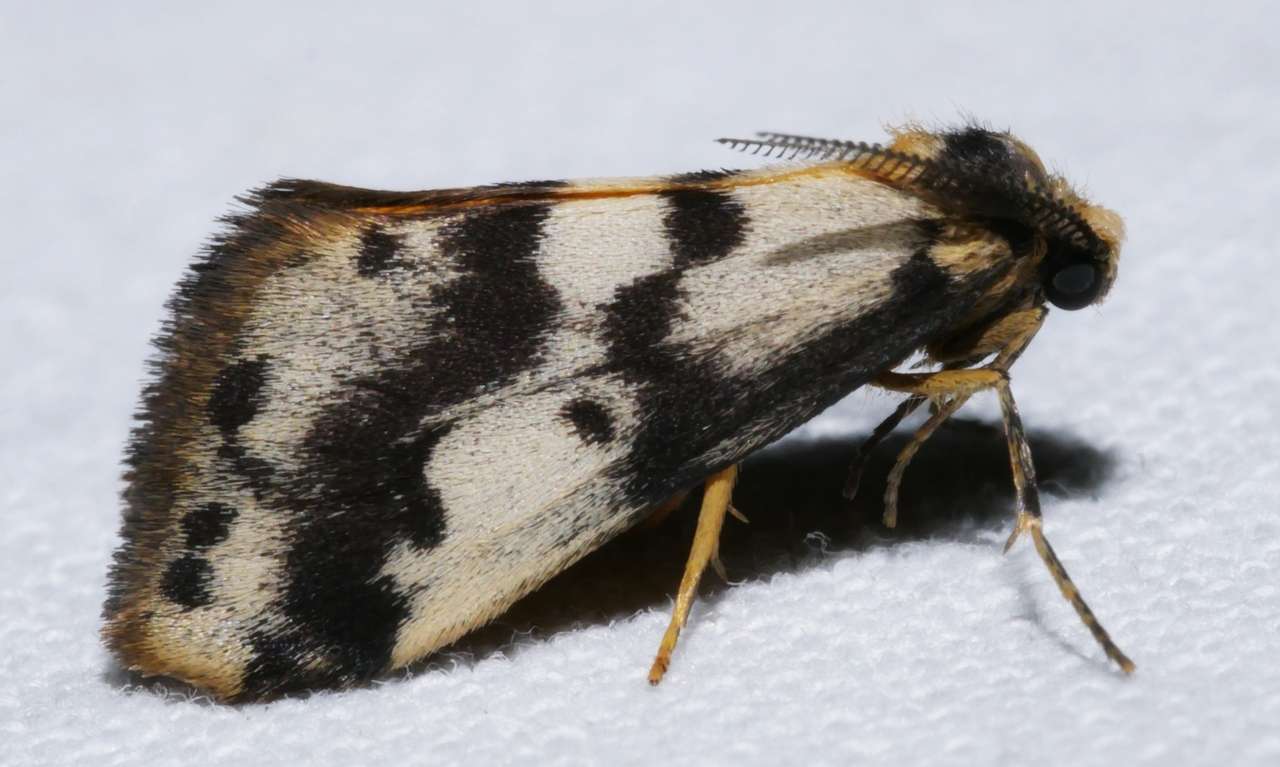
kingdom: Animalia
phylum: Arthropoda
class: Insecta
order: Lepidoptera
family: Erebidae
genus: Anestia
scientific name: Anestia
